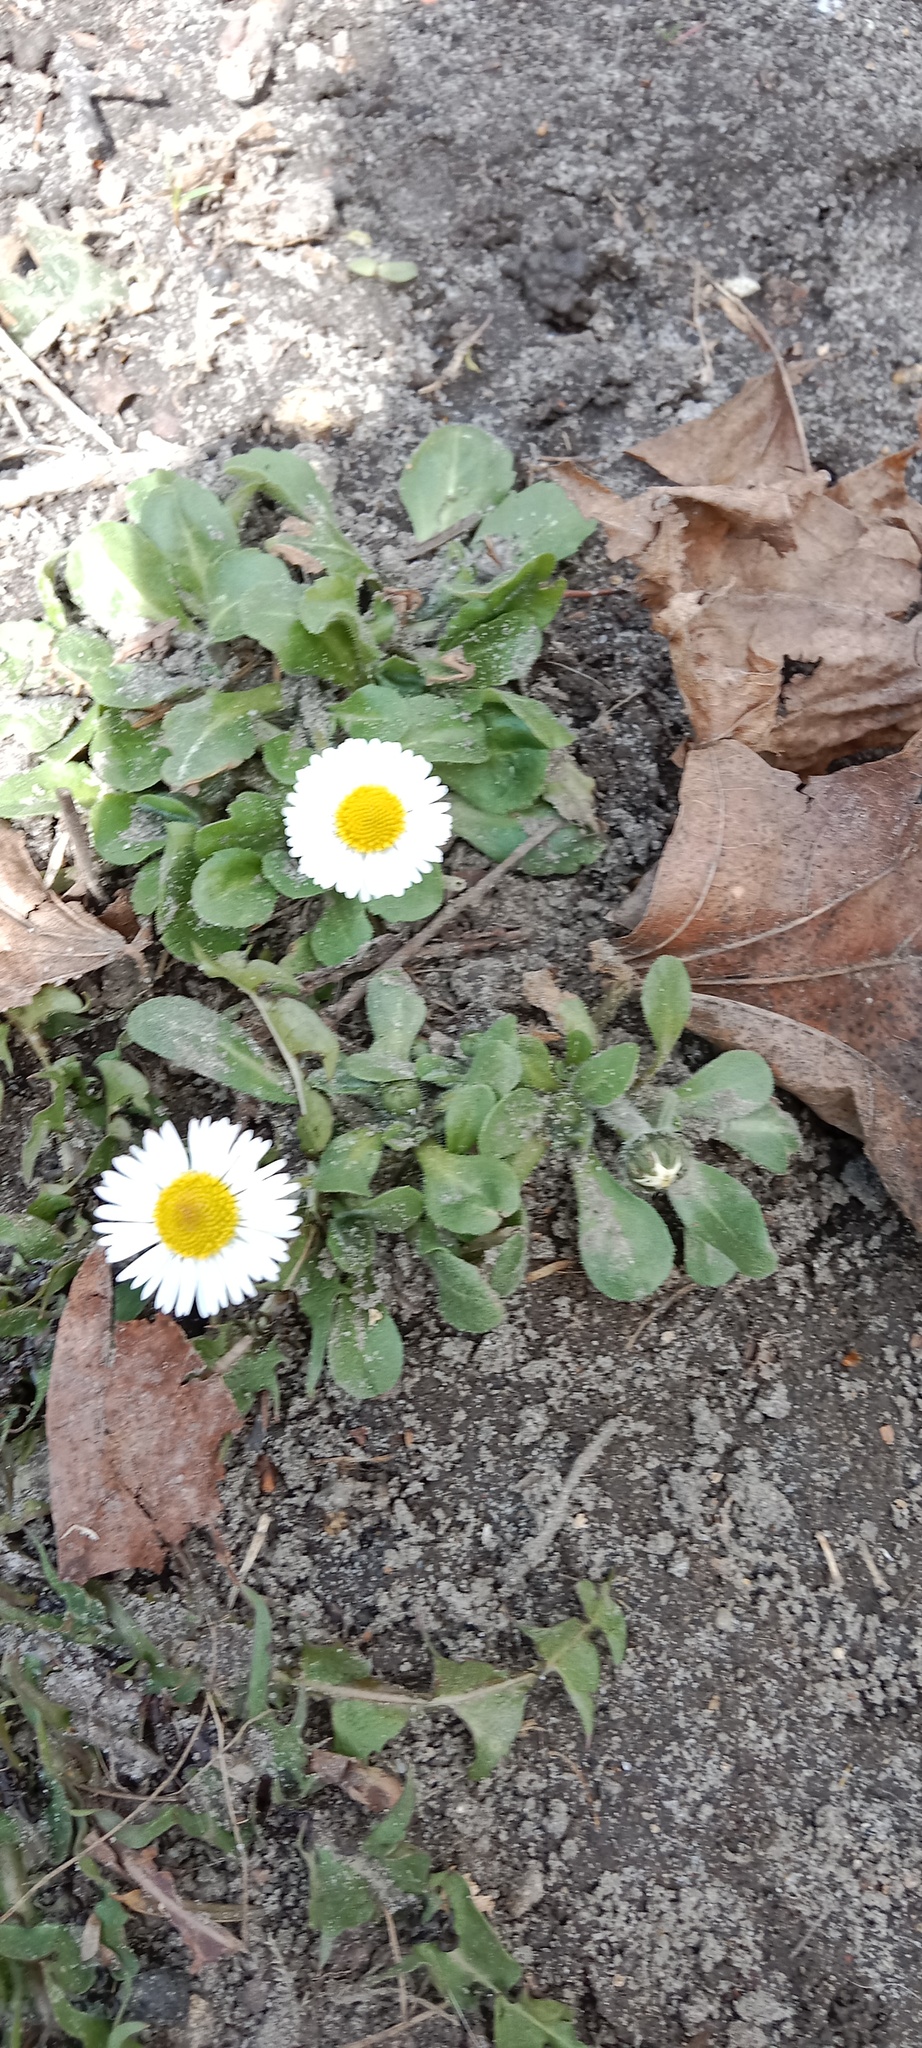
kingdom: Plantae
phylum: Tracheophyta
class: Magnoliopsida
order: Asterales
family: Asteraceae
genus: Bellis
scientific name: Bellis perennis
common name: Lawndaisy
